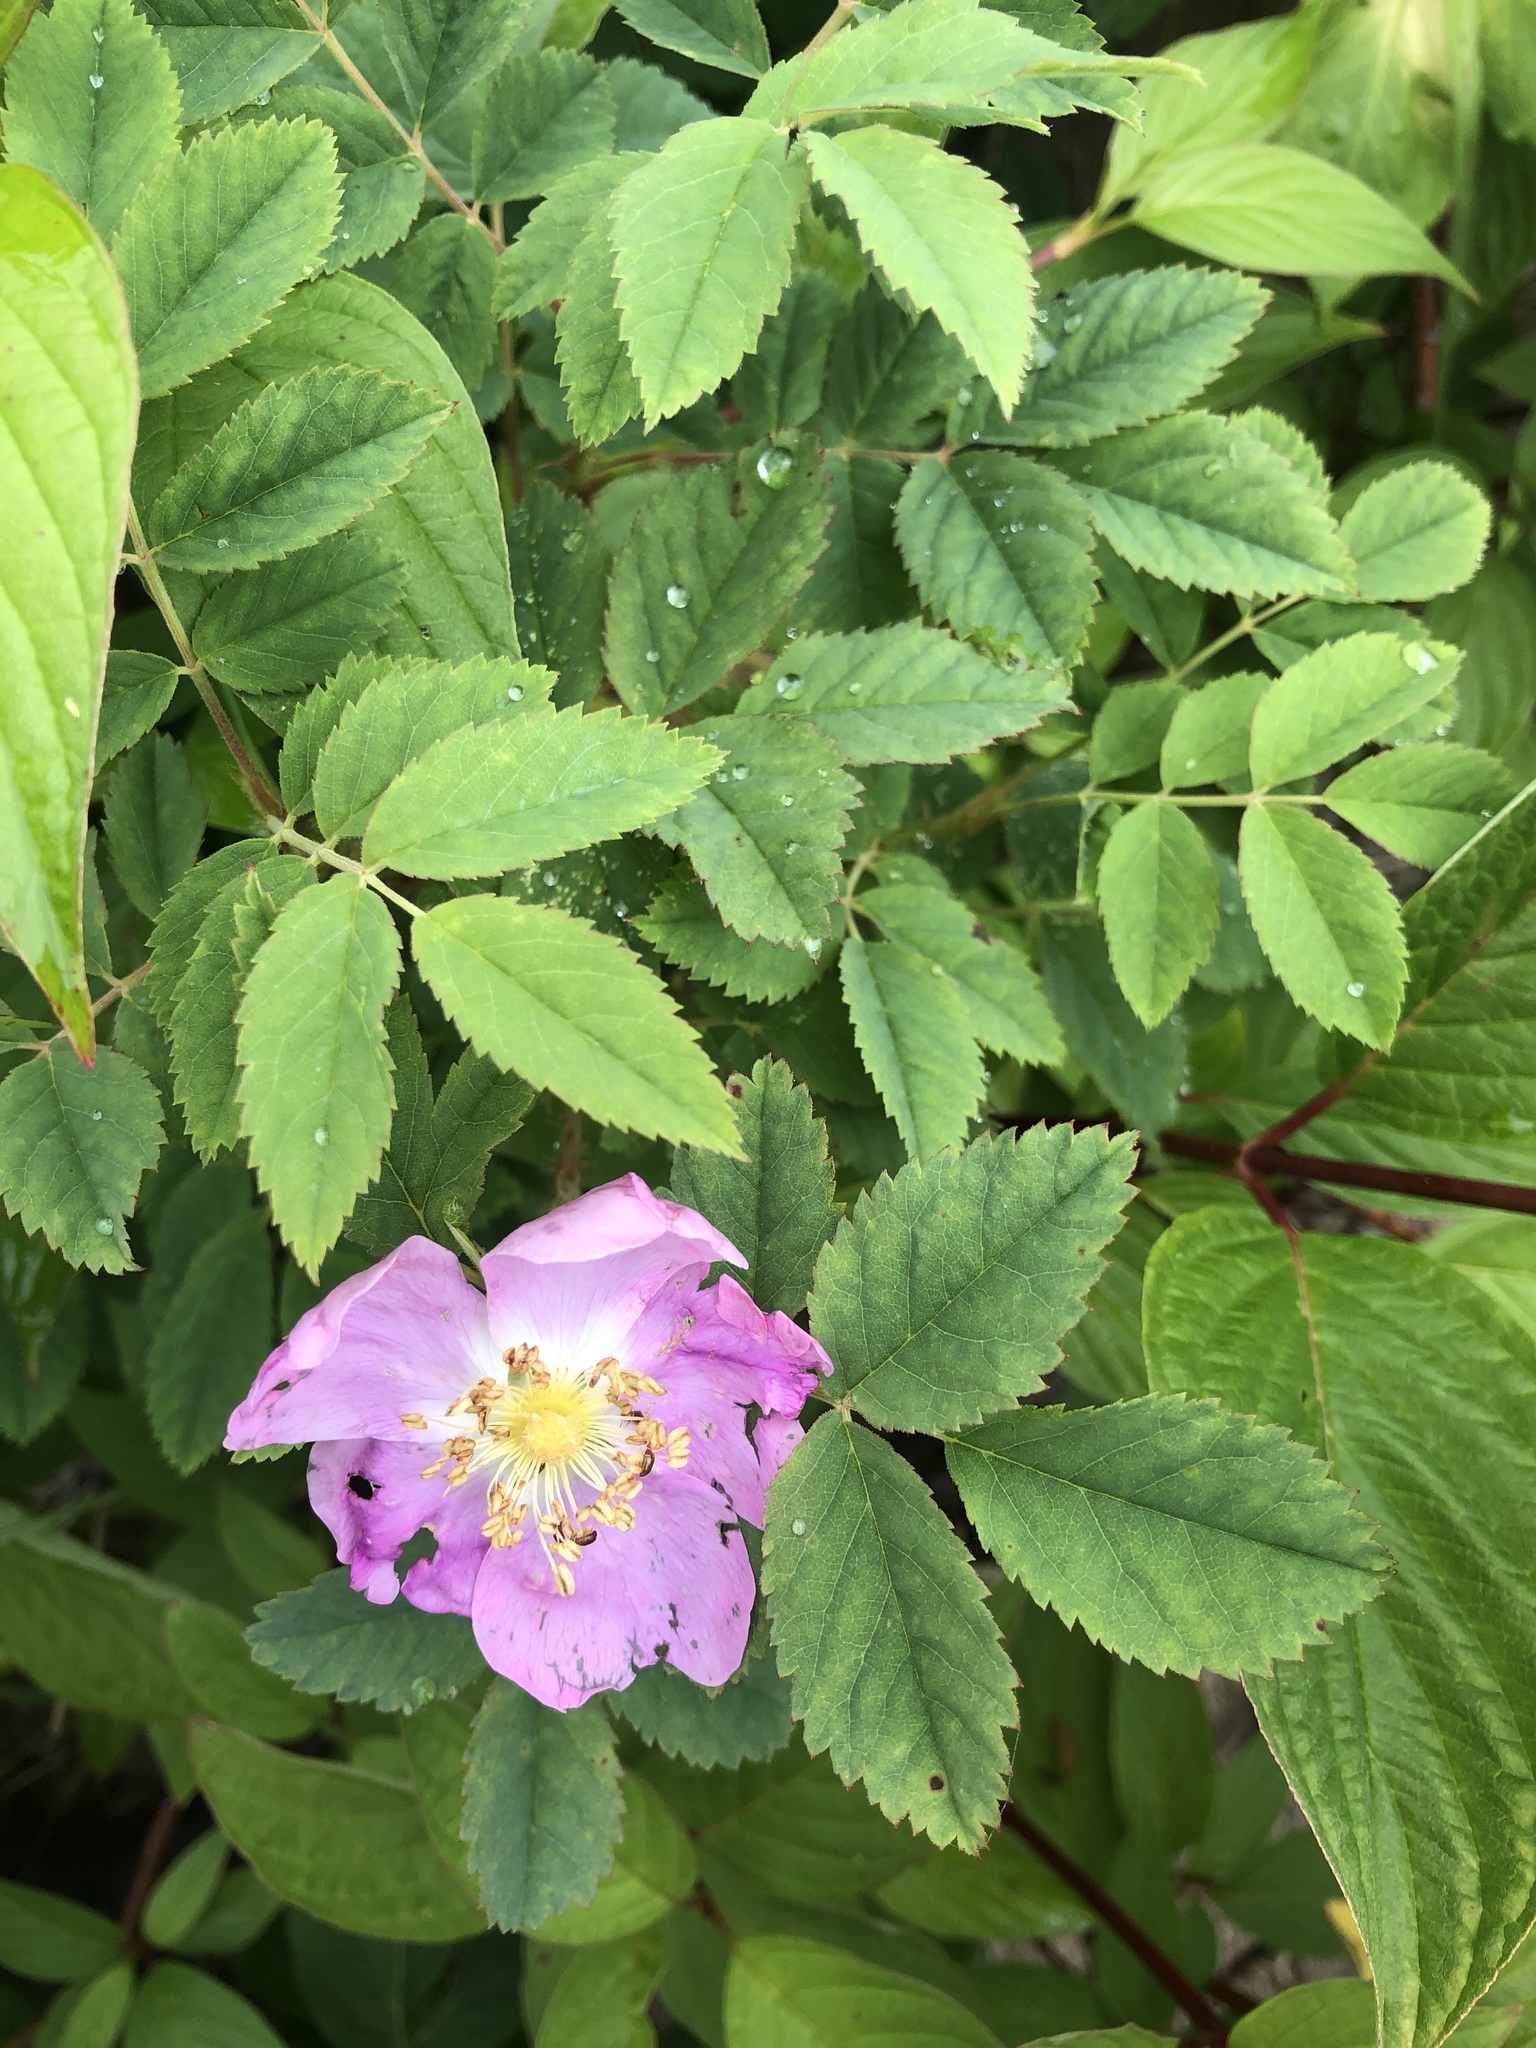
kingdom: Plantae
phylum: Tracheophyta
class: Magnoliopsida
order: Rosales
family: Rosaceae
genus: Rosa
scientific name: Rosa acicularis
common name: Prickly rose
